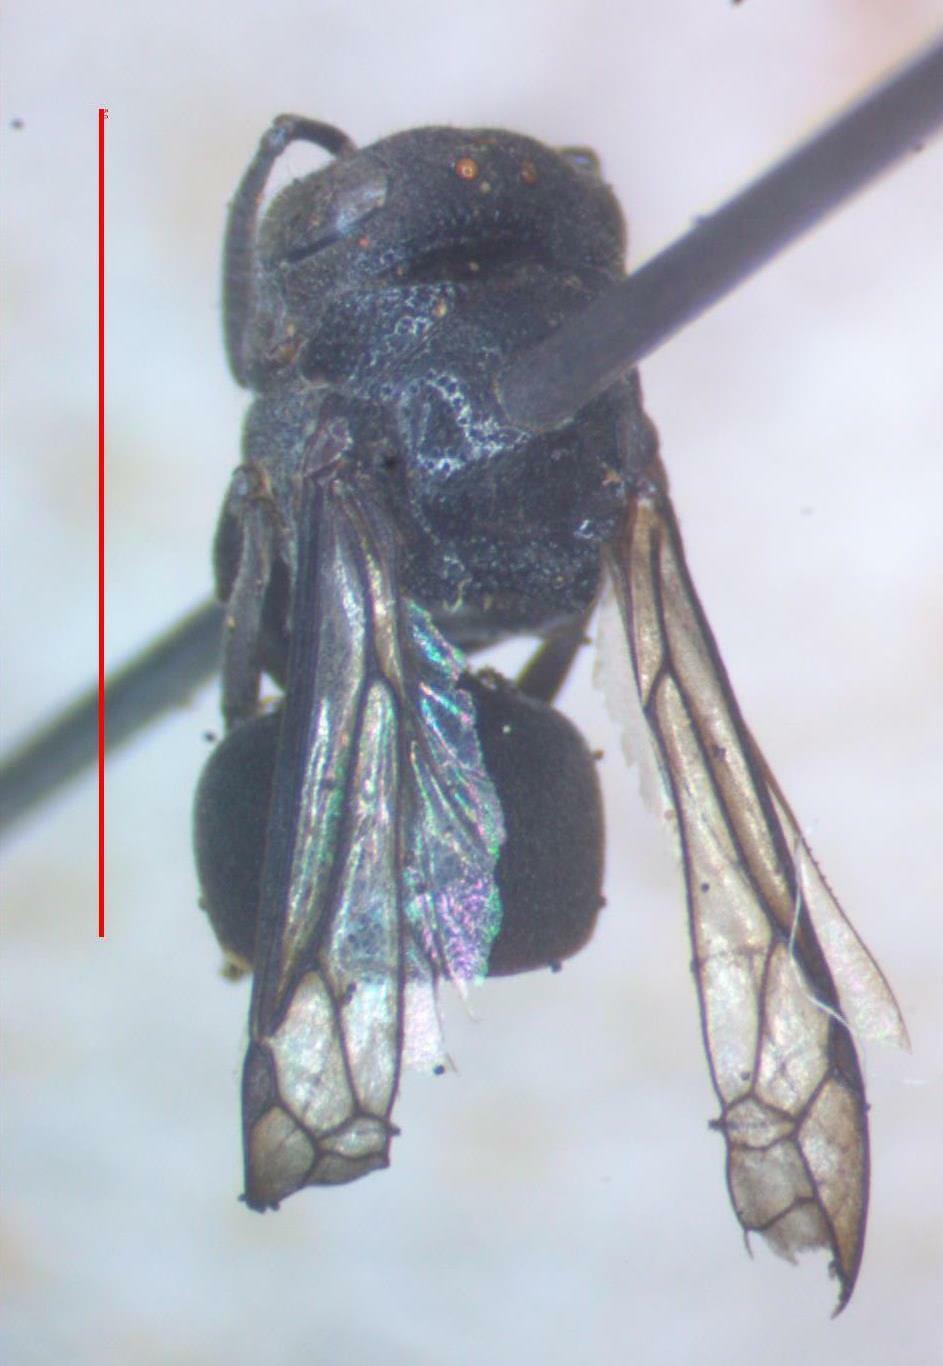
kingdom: Animalia
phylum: Arthropoda
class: Insecta
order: Hymenoptera
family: Vespidae
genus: Brachygastra
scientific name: Brachygastra augusti
